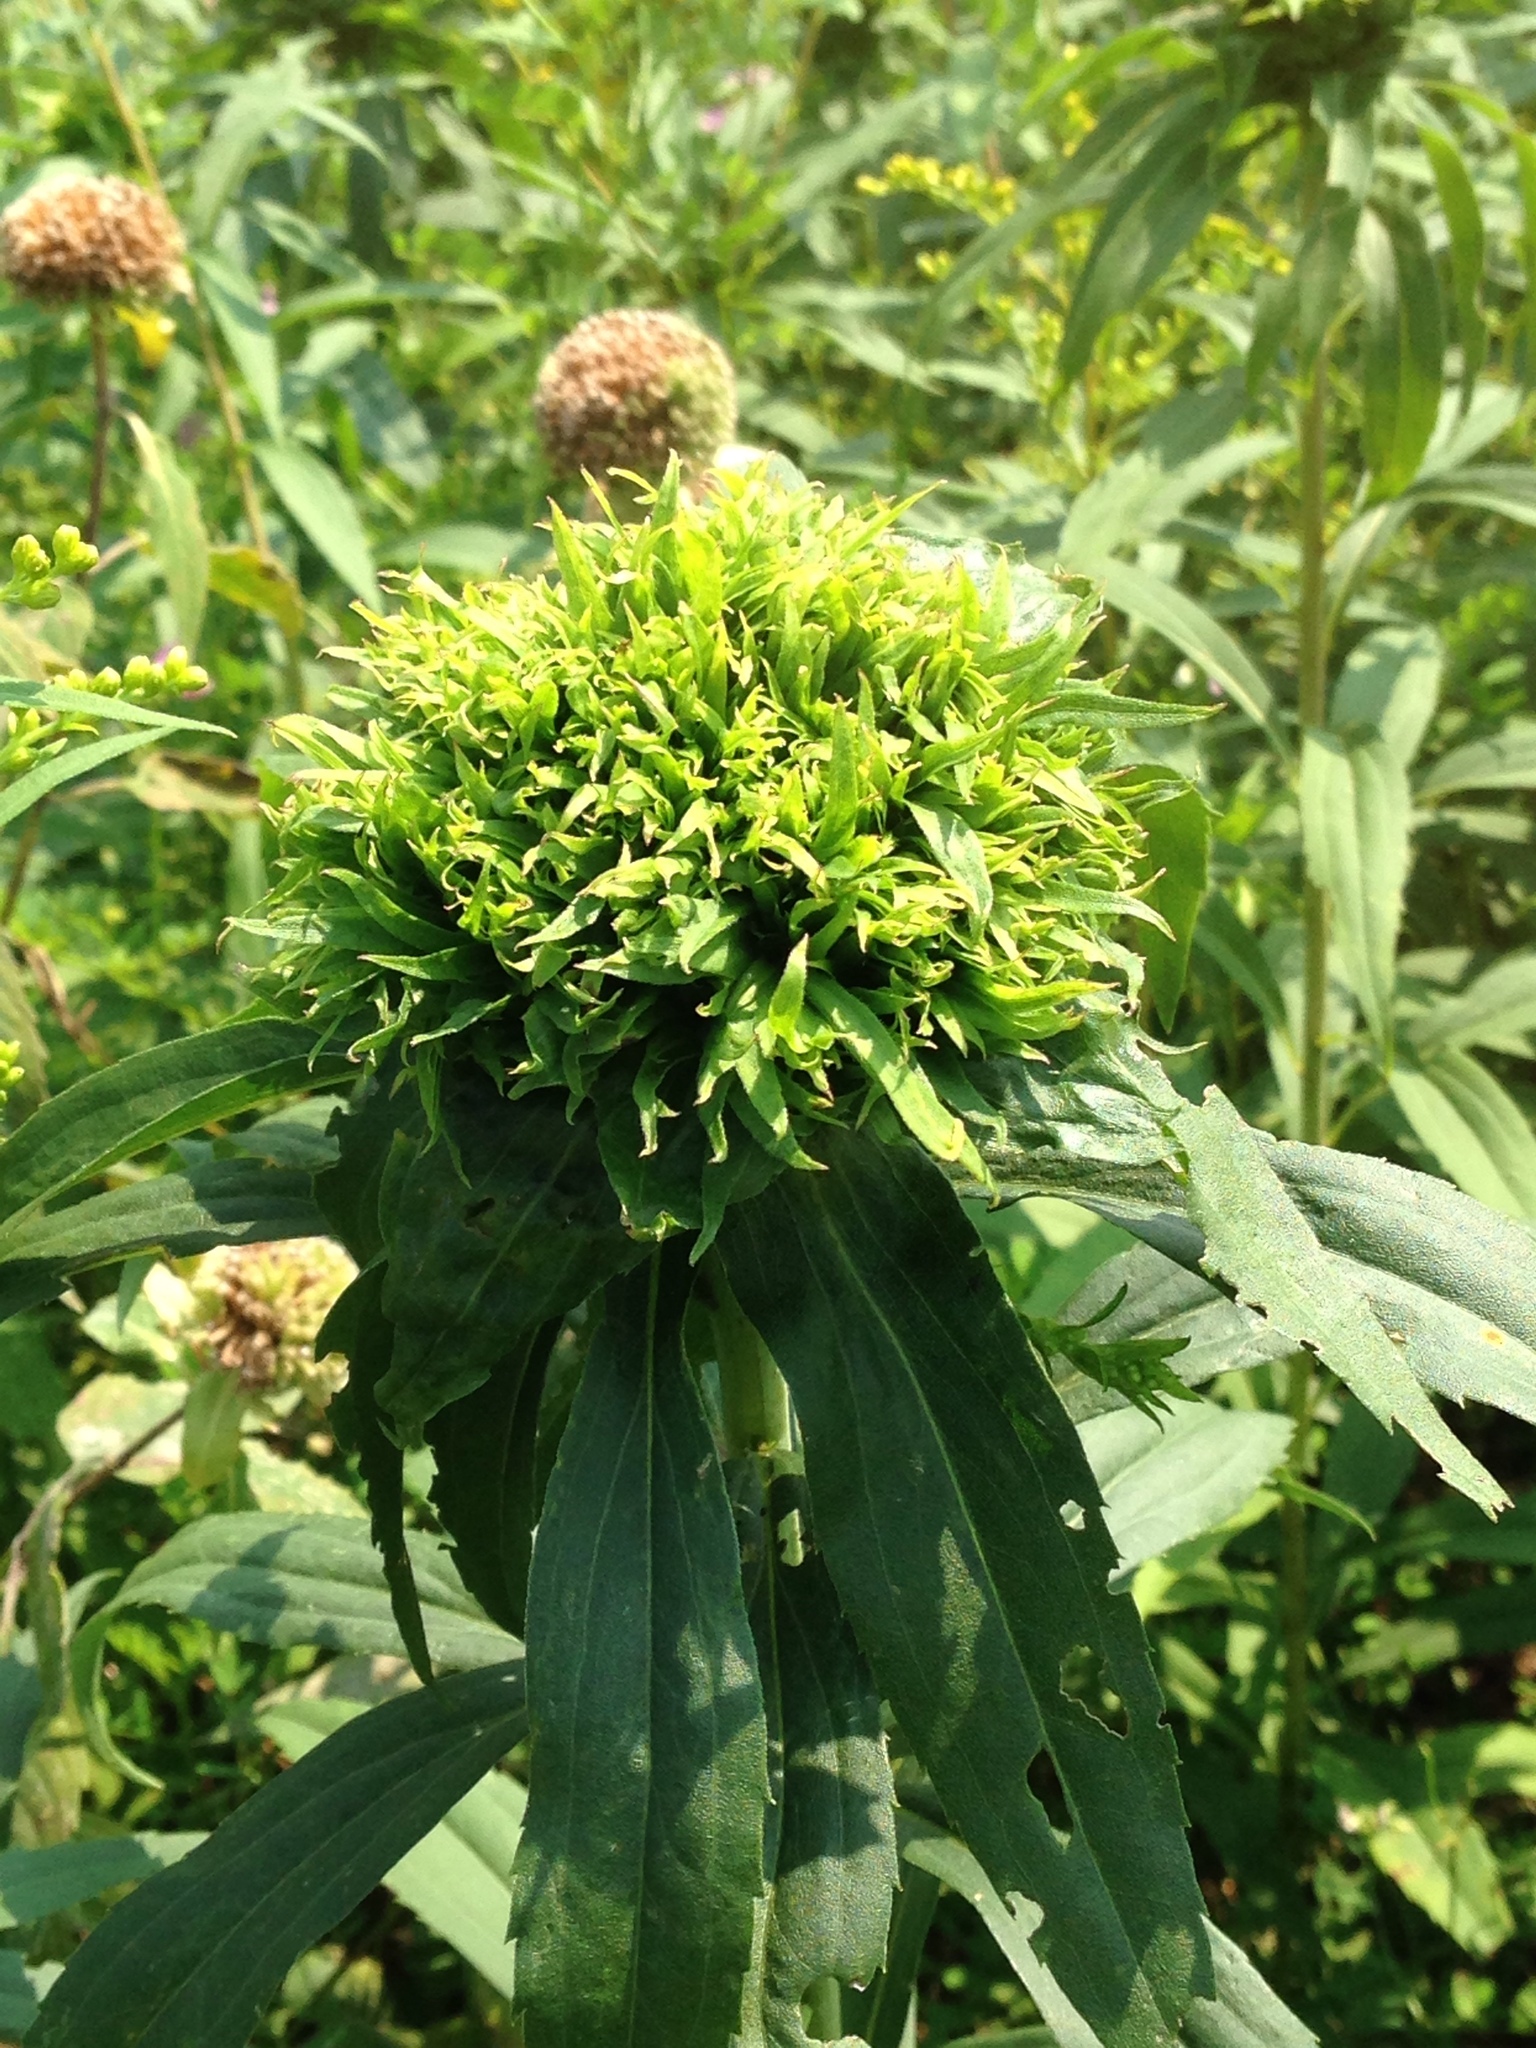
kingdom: Animalia
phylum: Arthropoda
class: Insecta
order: Diptera
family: Cecidomyiidae
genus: Rhopalomyia
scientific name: Rhopalomyia capitata
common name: Giant goldenrod bunch gall midge
